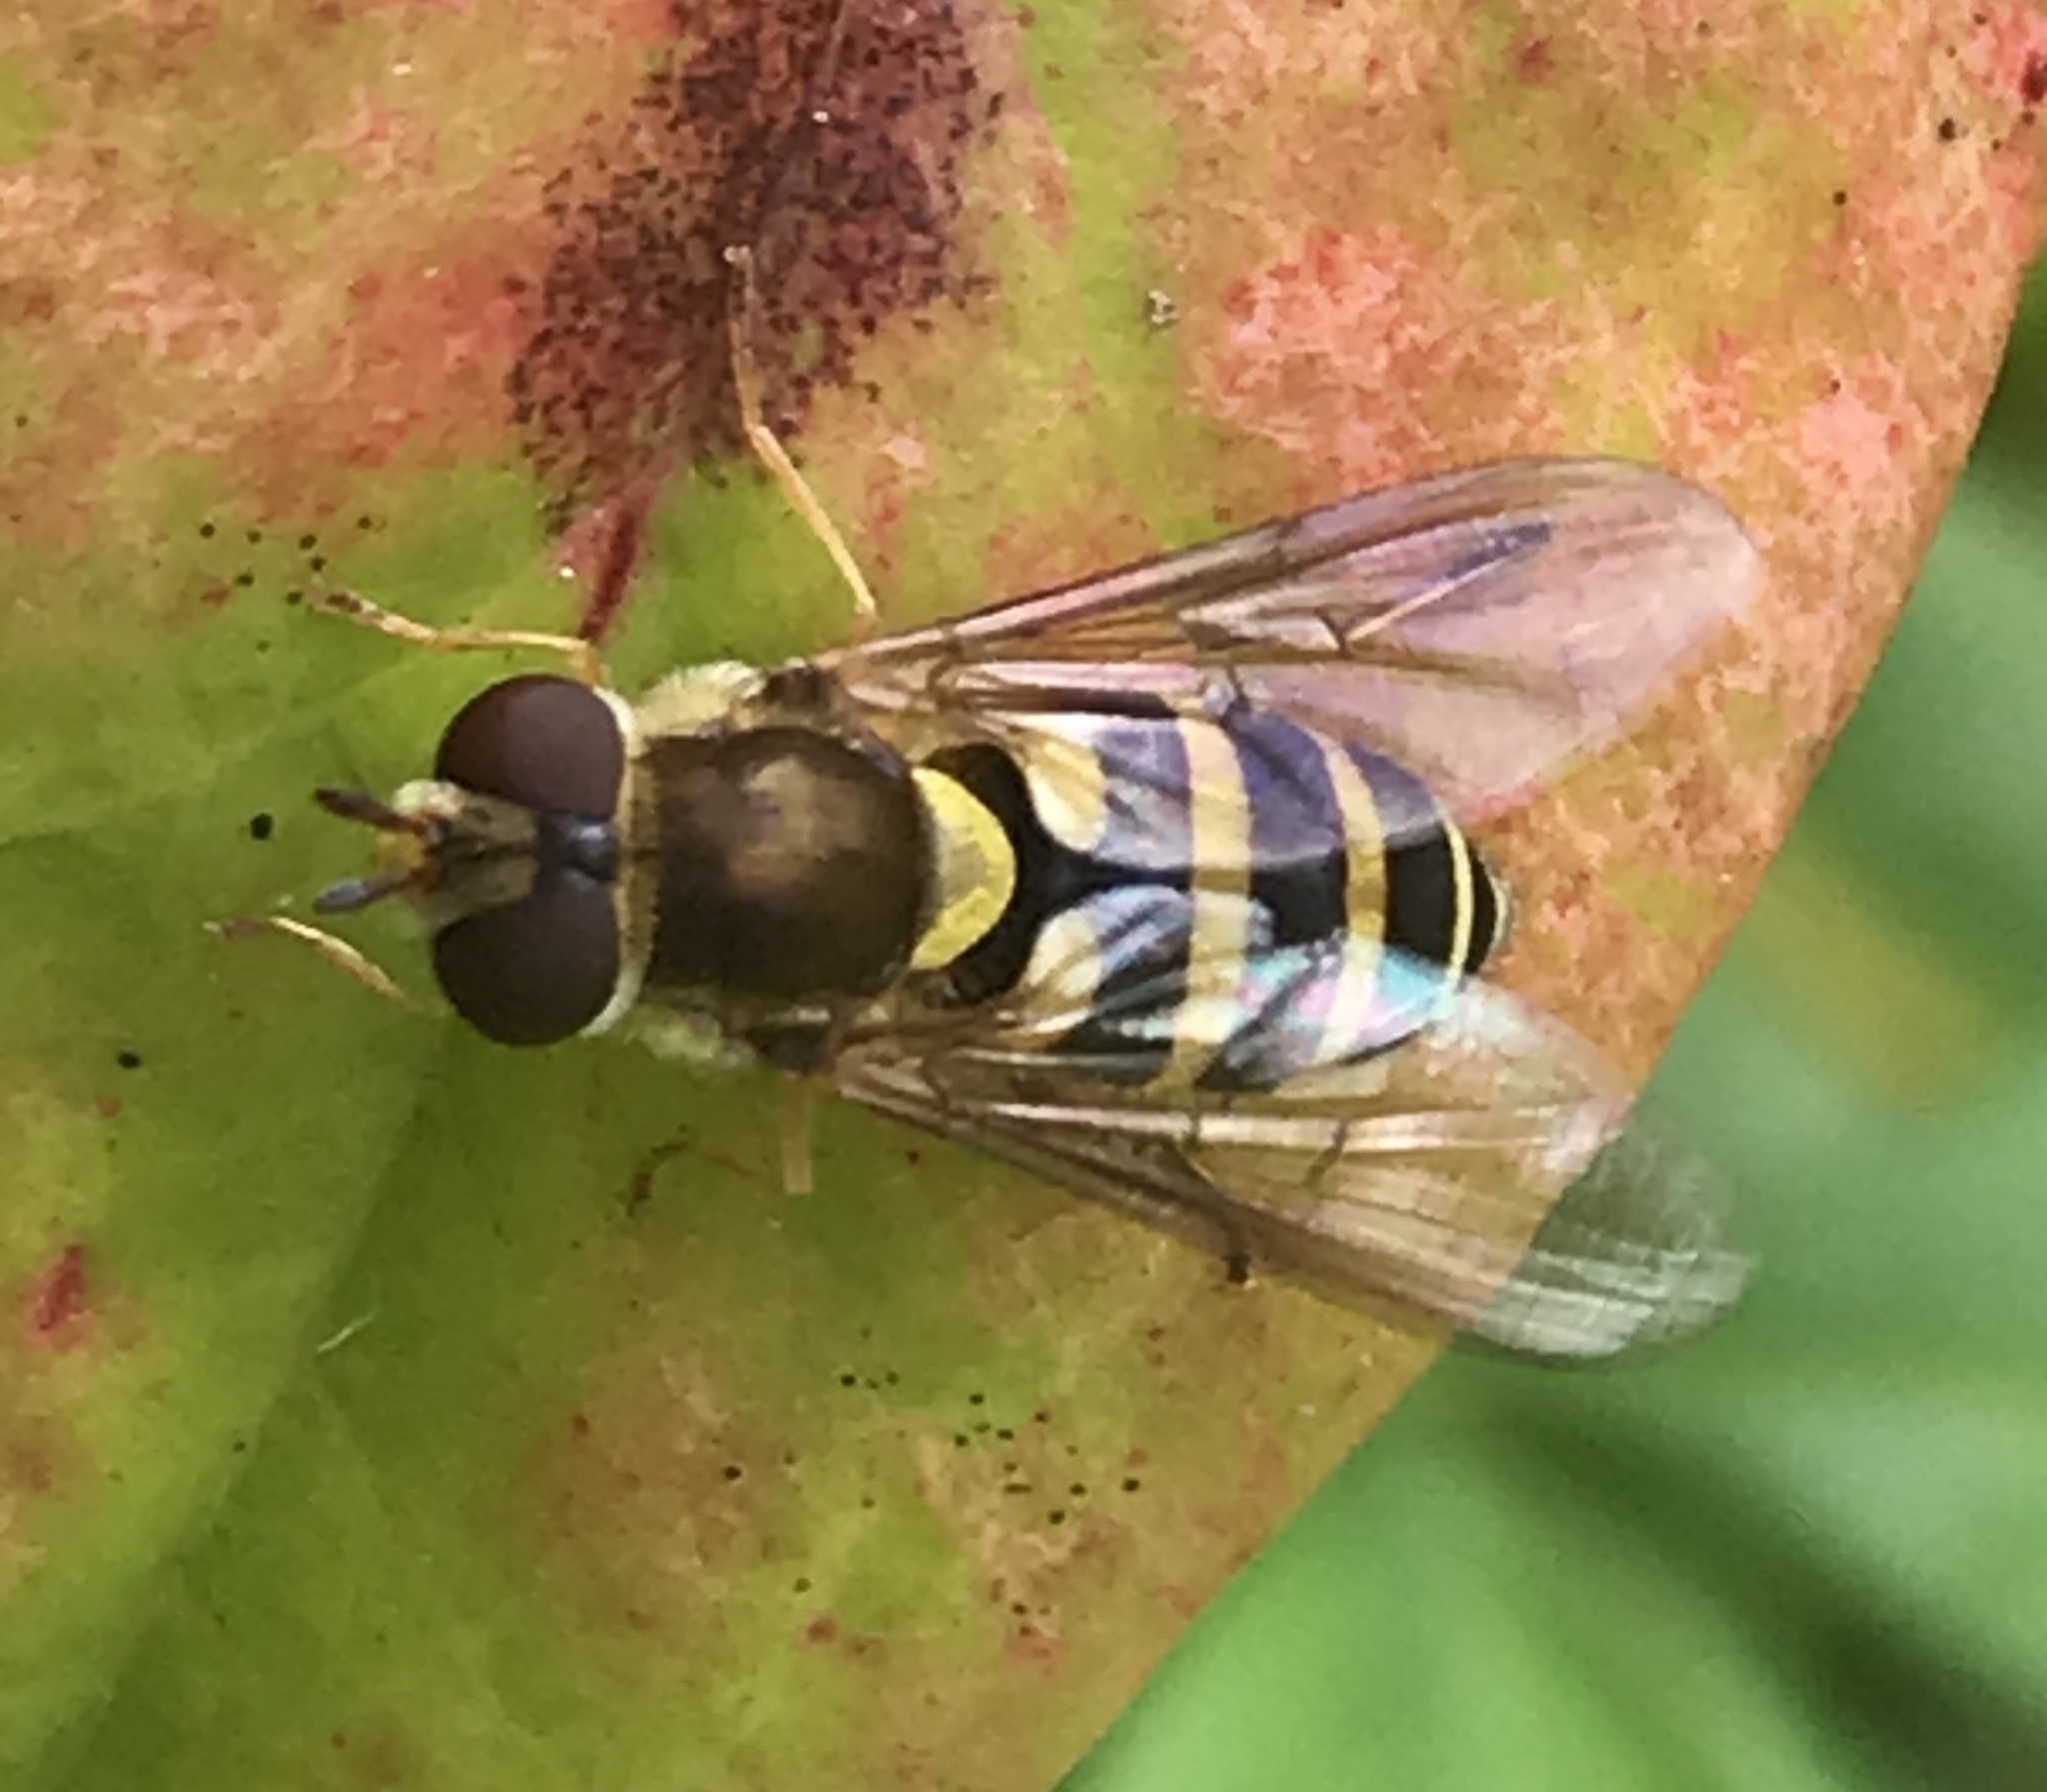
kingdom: Animalia
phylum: Arthropoda
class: Insecta
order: Diptera
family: Syrphidae
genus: Syrphus
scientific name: Syrphus
